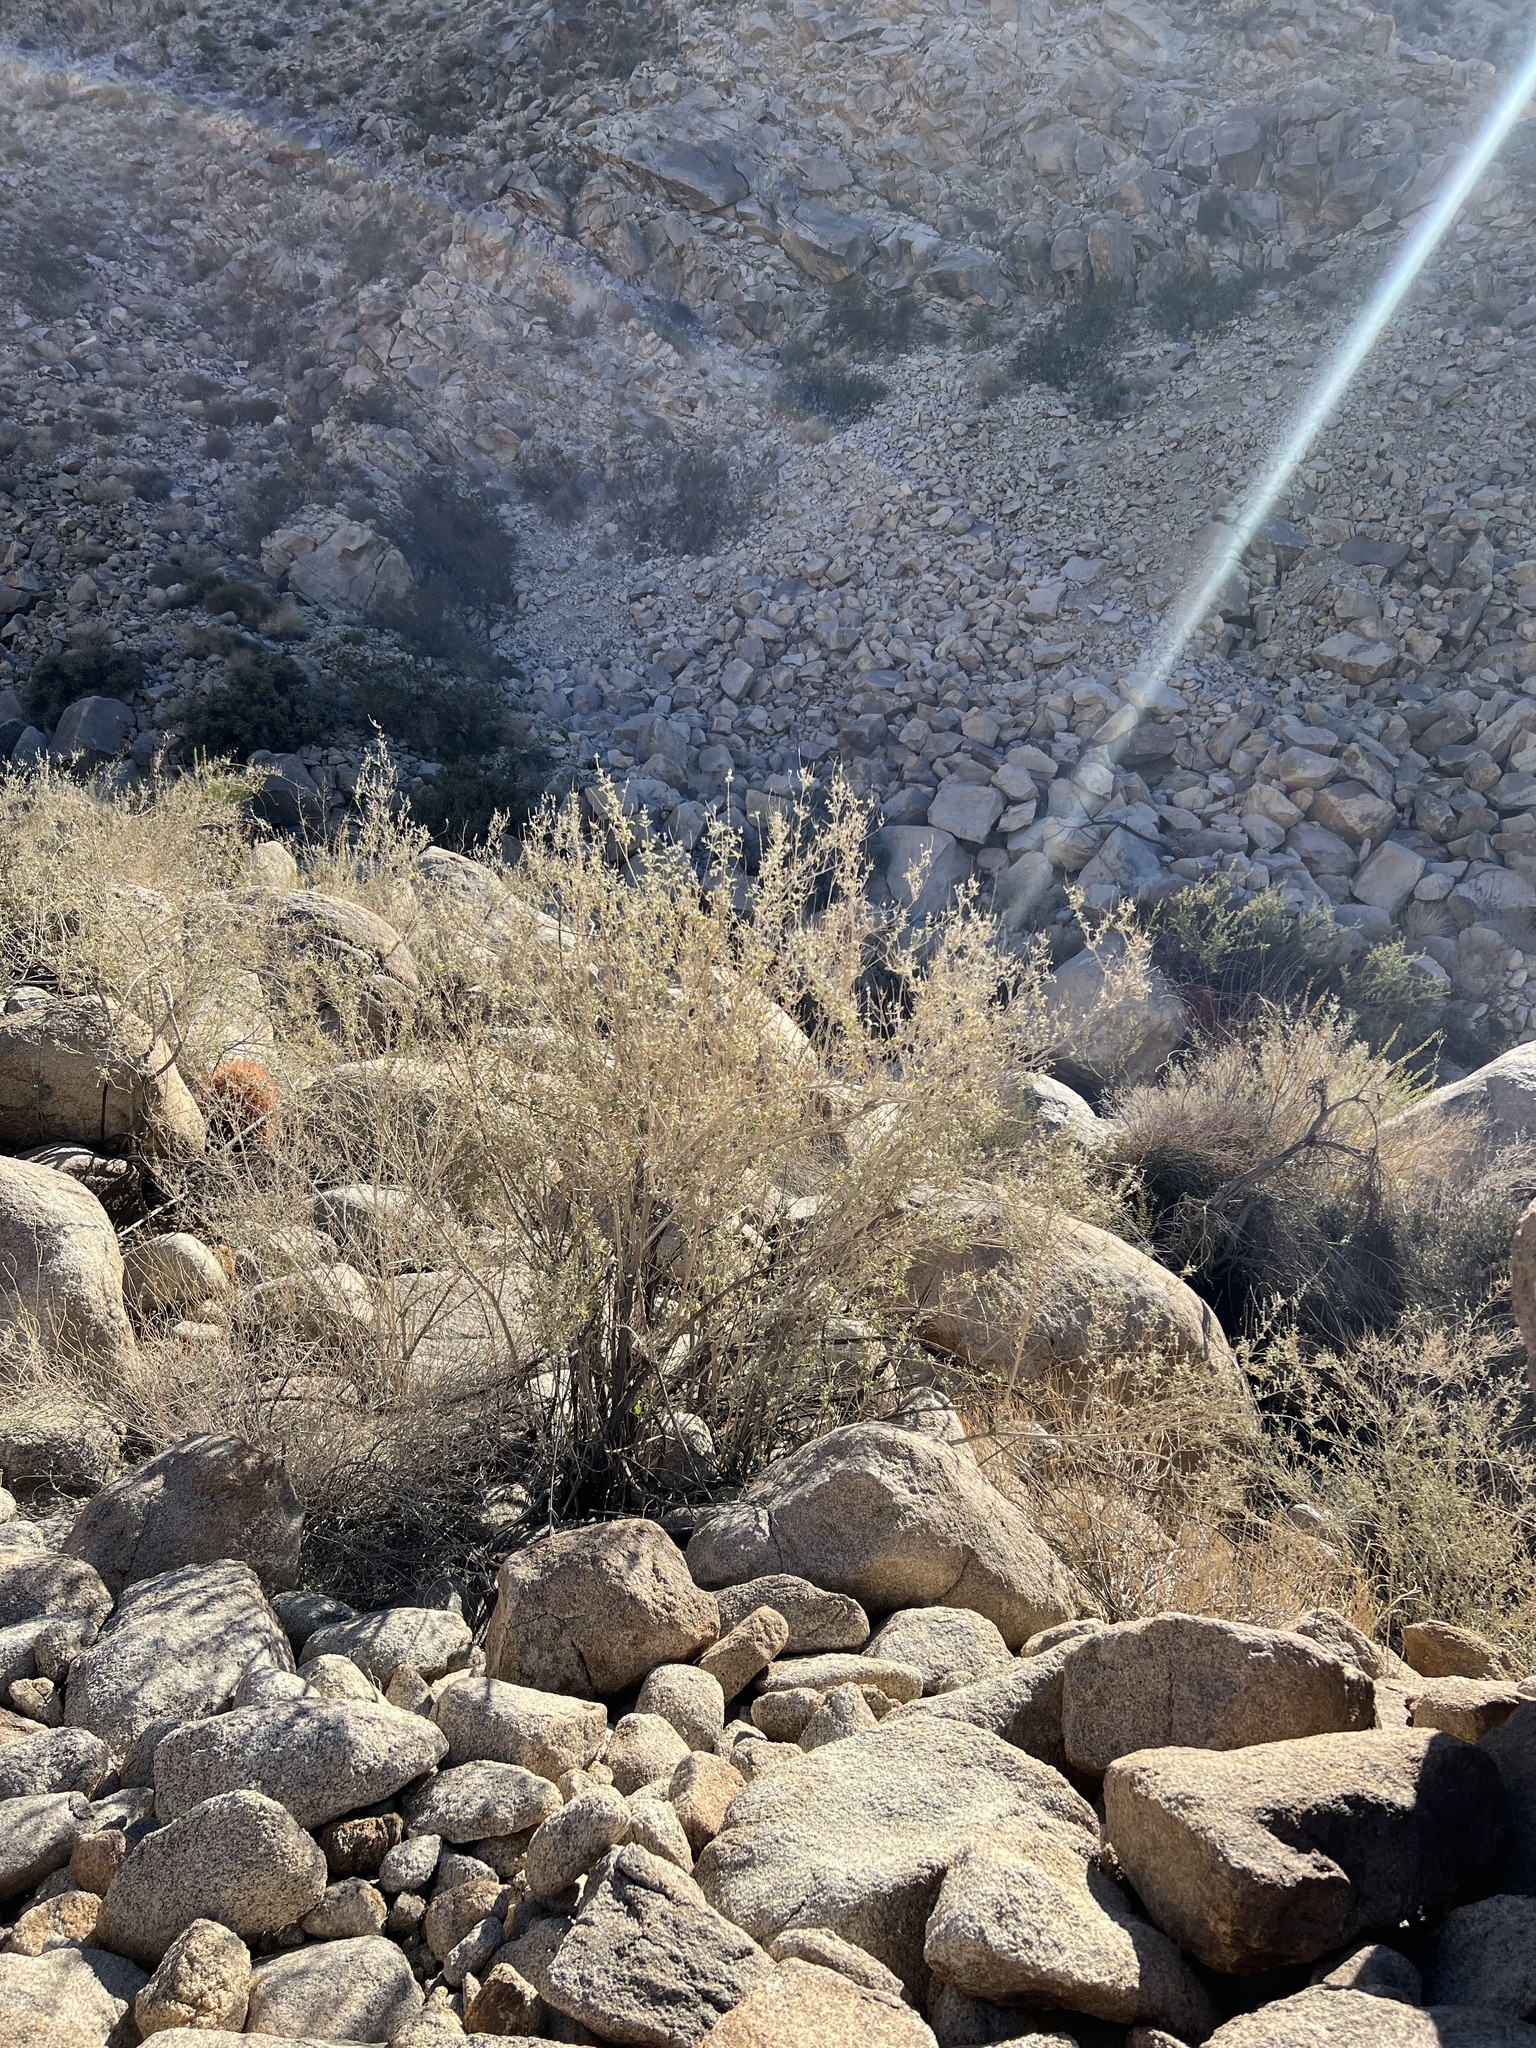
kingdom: Plantae
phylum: Tracheophyta
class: Magnoliopsida
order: Lamiales
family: Lamiaceae
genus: Condea
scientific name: Condea emoryi
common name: Chia
